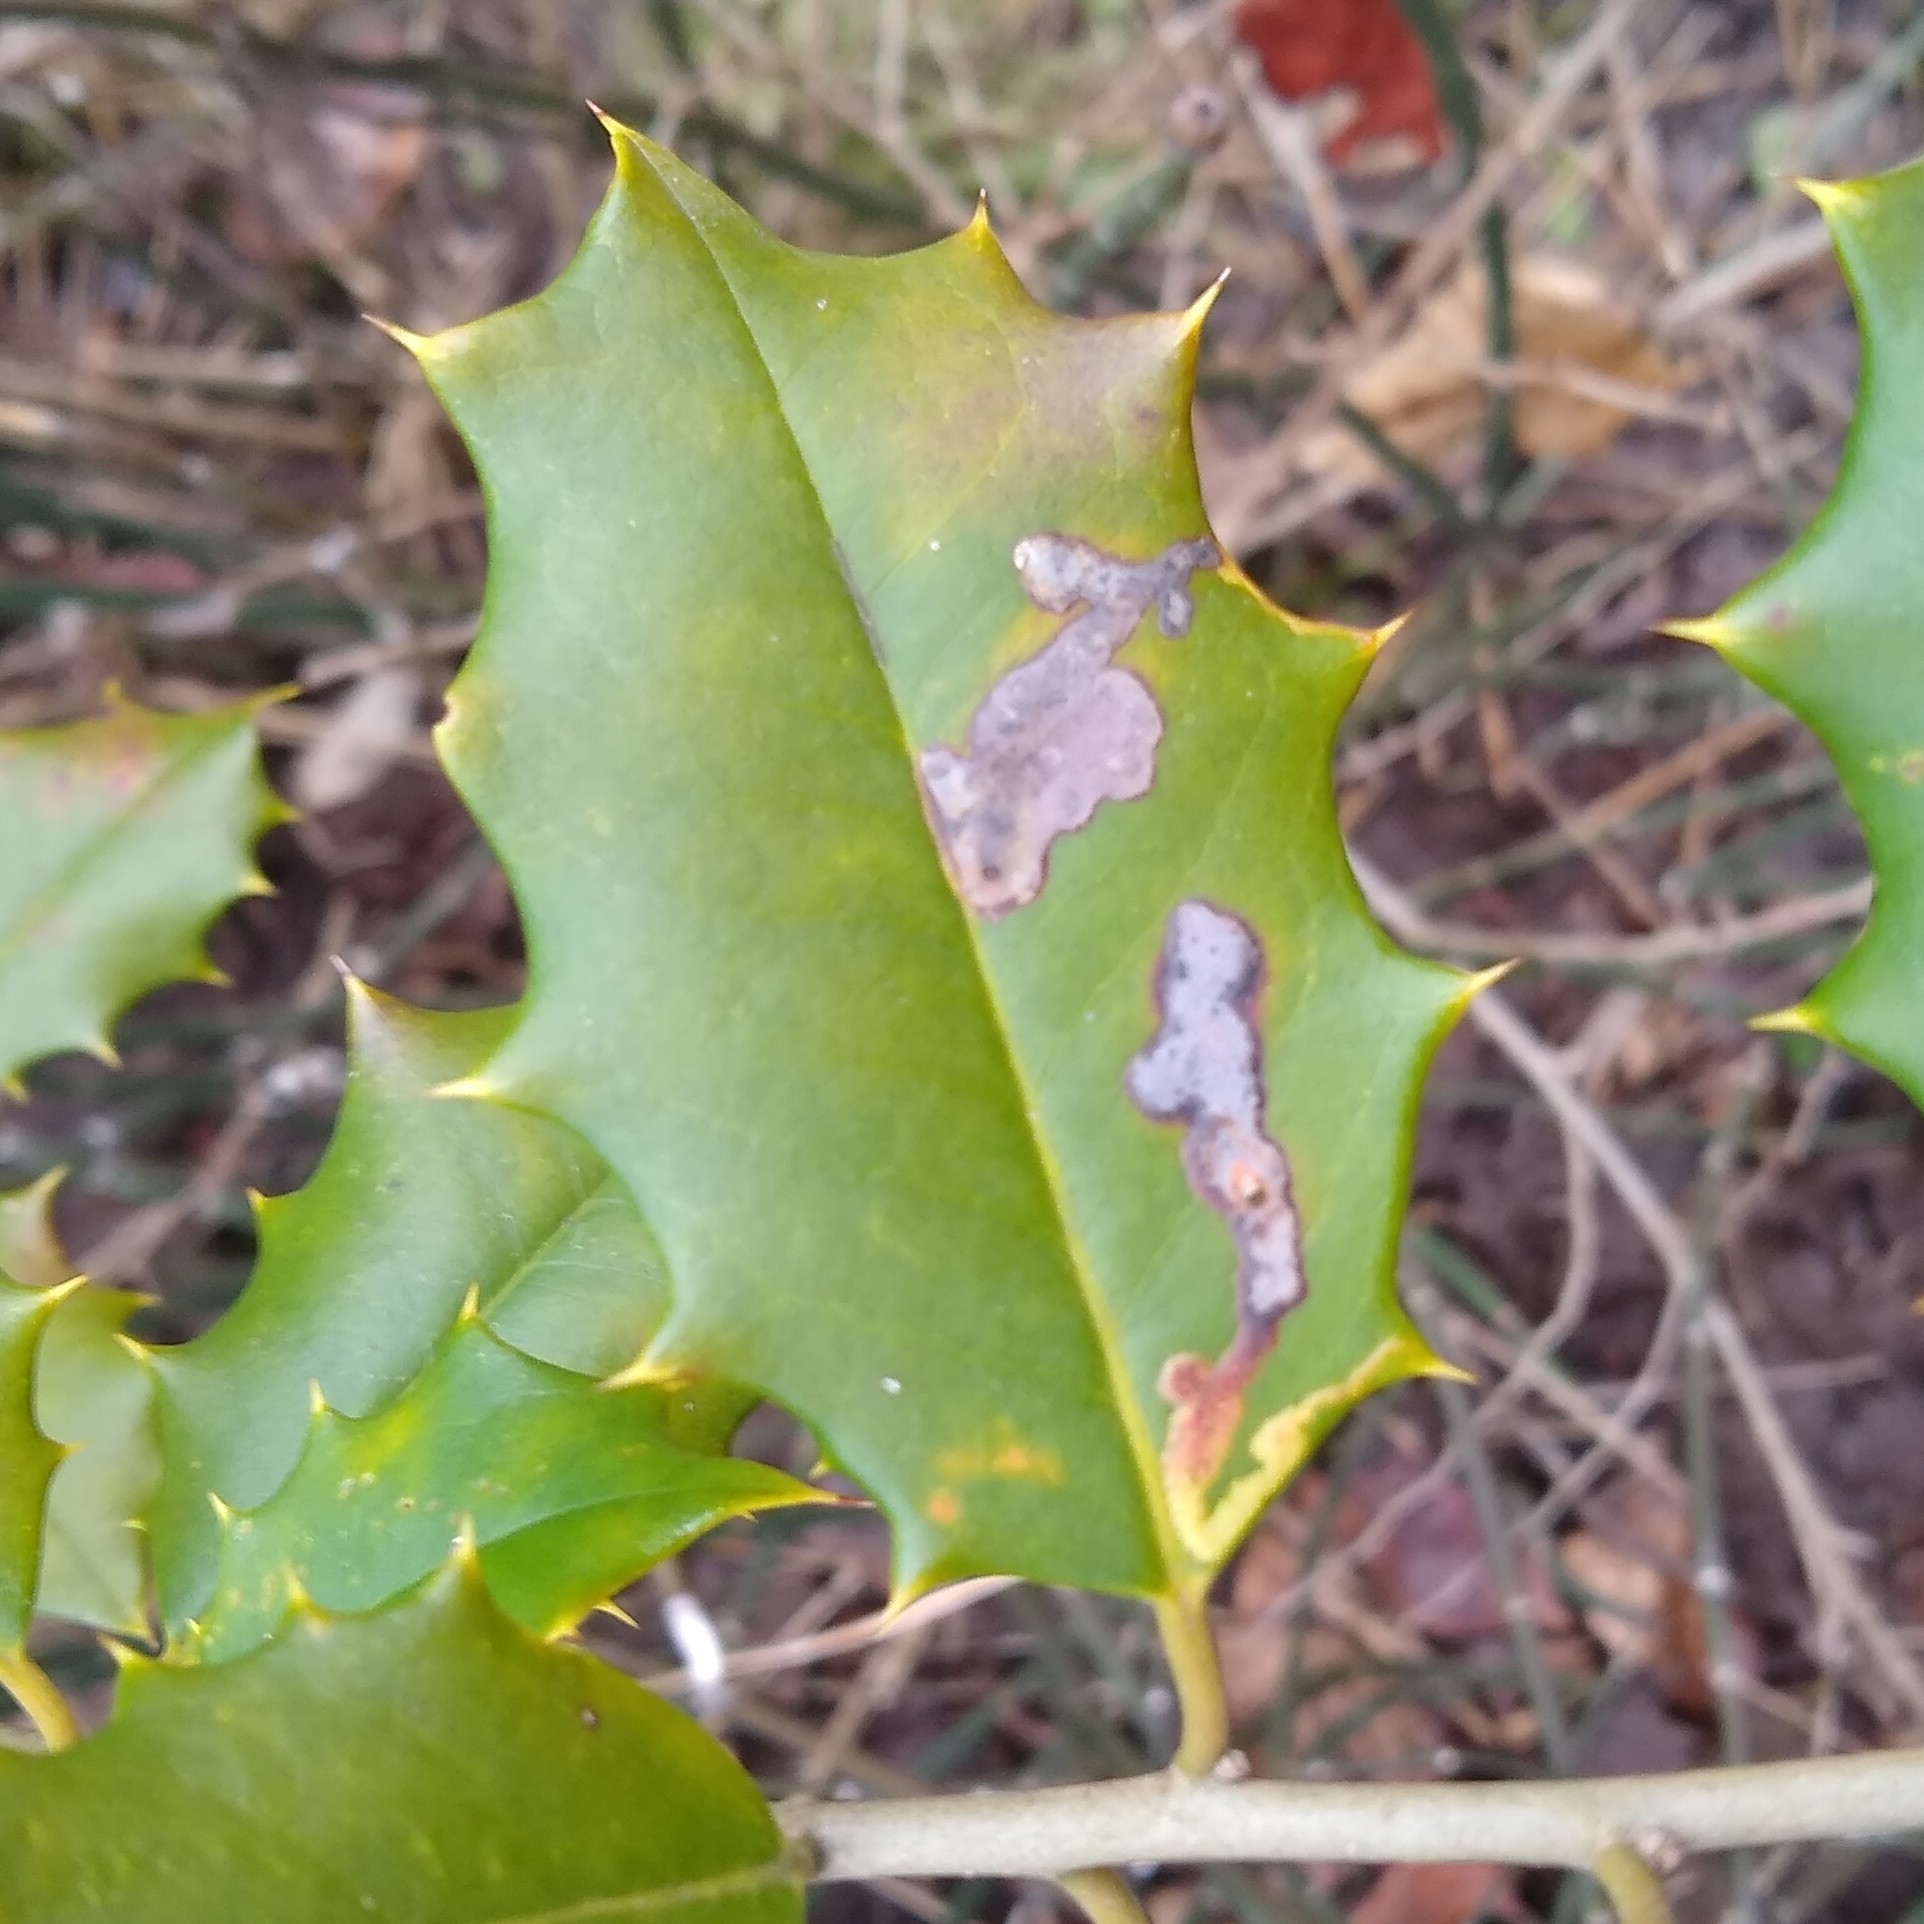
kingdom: Animalia
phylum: Arthropoda
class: Insecta
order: Diptera
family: Agromyzidae
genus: Phytomyza
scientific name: Phytomyza ilicicola
